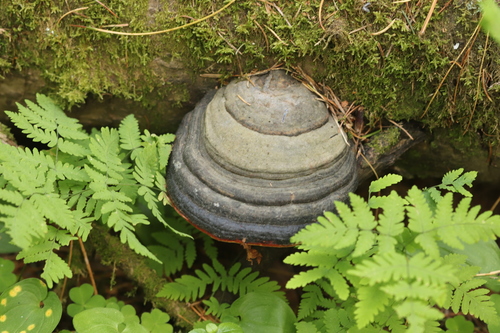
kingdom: Fungi
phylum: Basidiomycota
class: Agaricomycetes
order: Polyporales
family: Fomitopsidaceae
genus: Fomitopsis
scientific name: Fomitopsis pinicola
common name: Red-belted bracket
